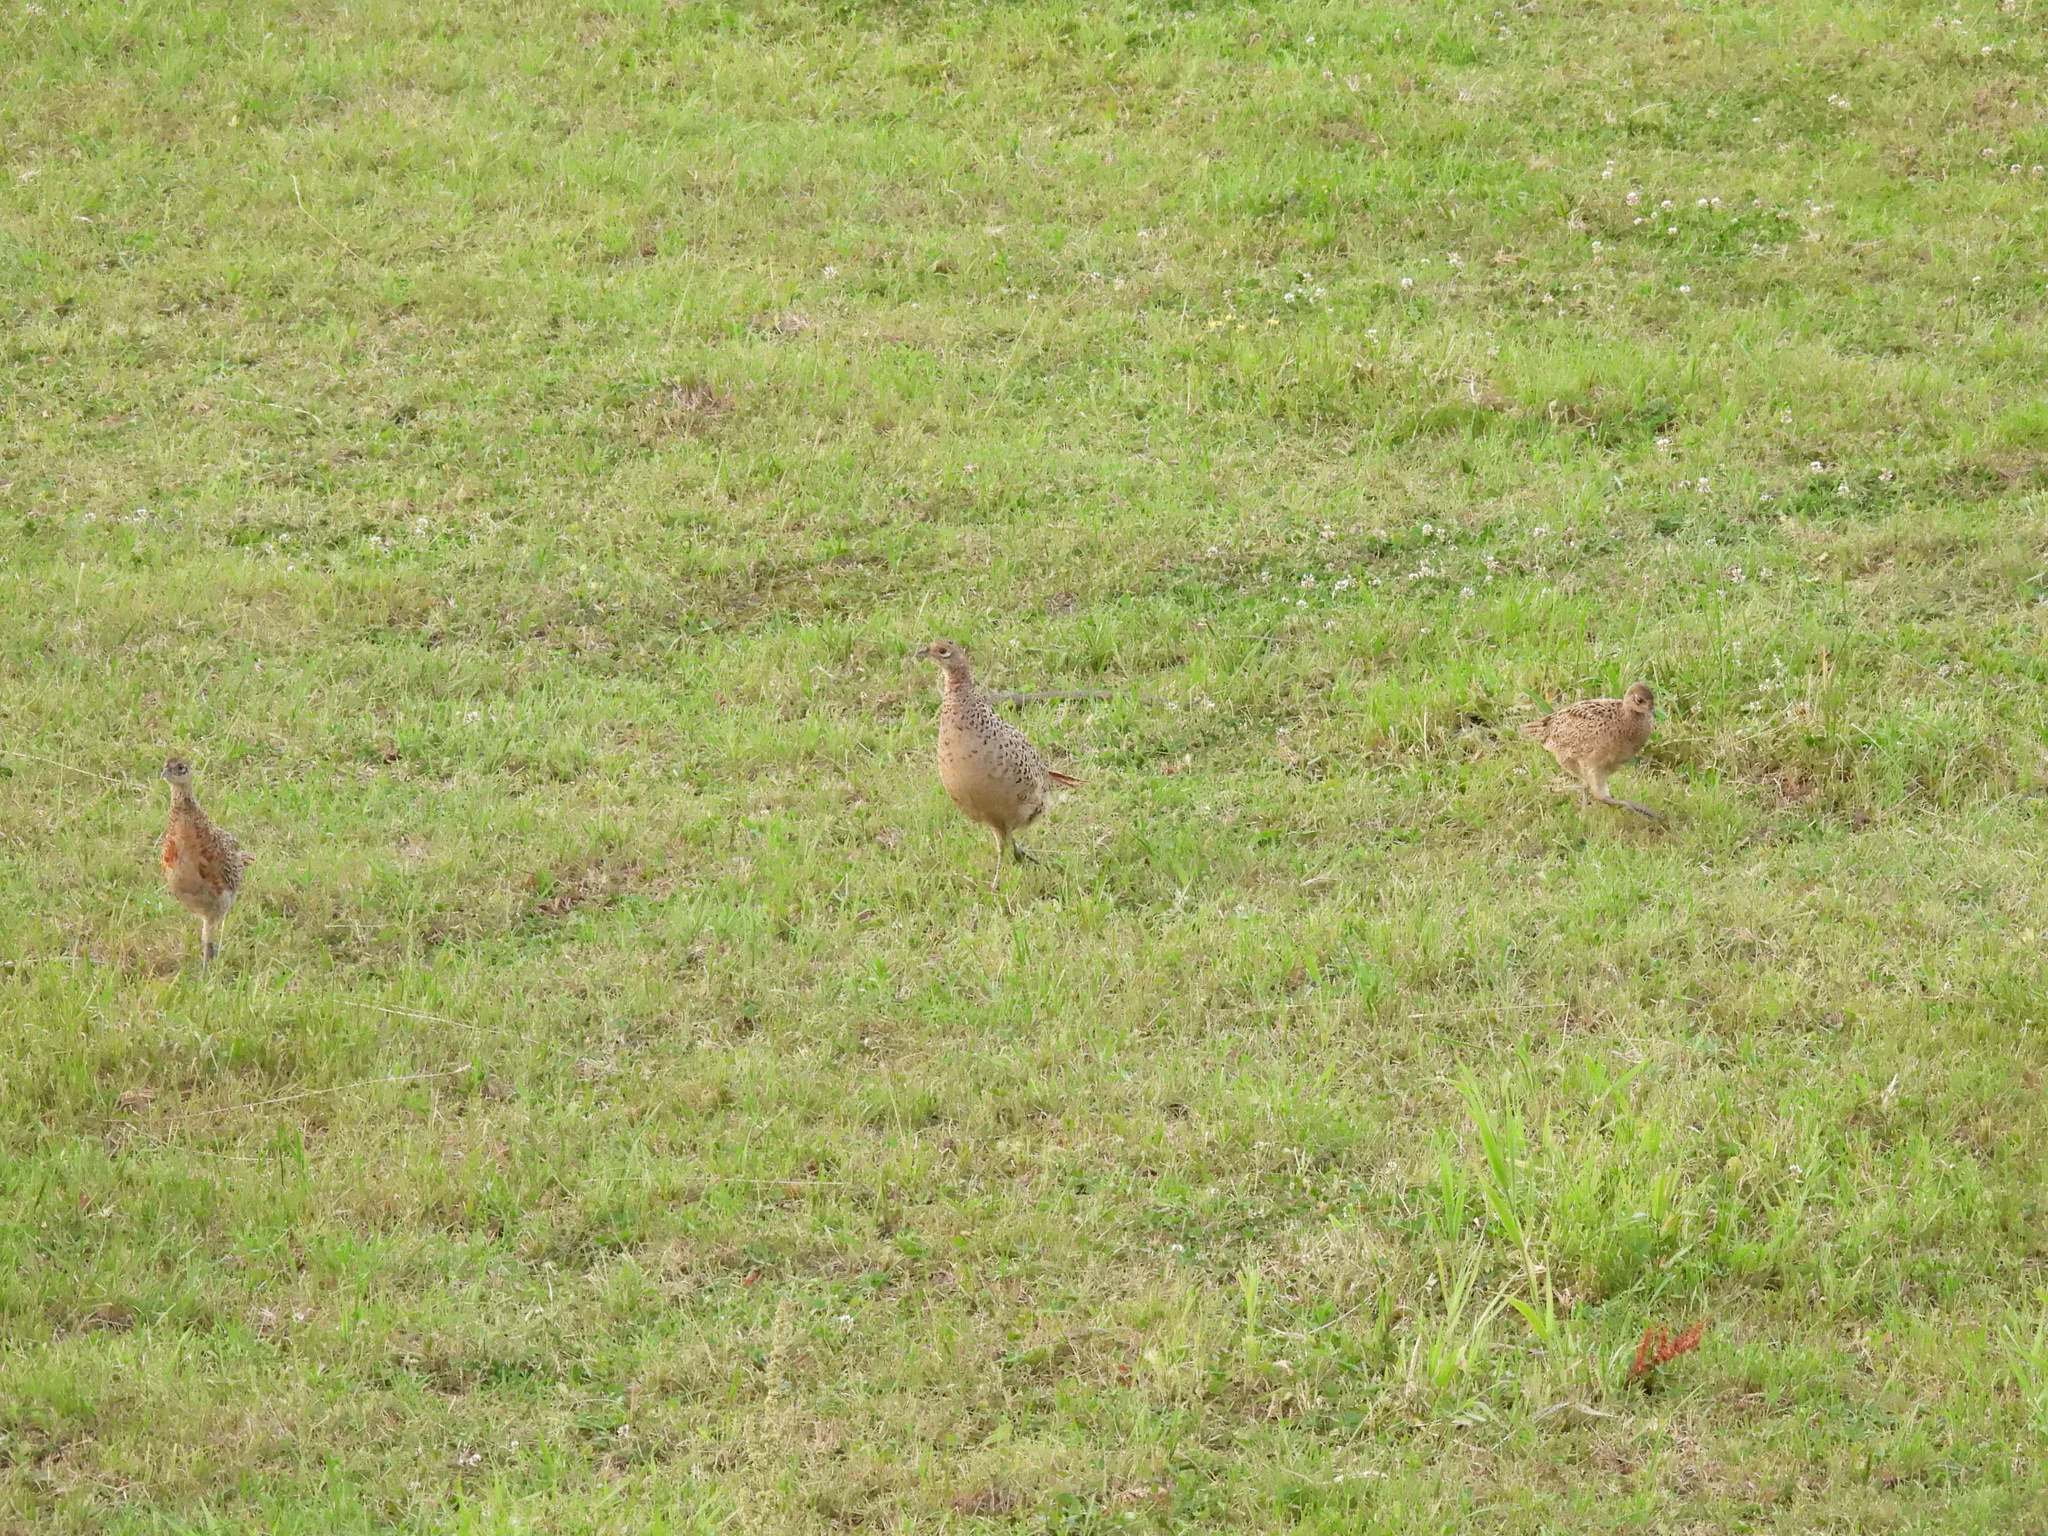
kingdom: Animalia
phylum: Chordata
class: Aves
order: Galliformes
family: Phasianidae
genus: Phasianus
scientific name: Phasianus colchicus
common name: Common pheasant
